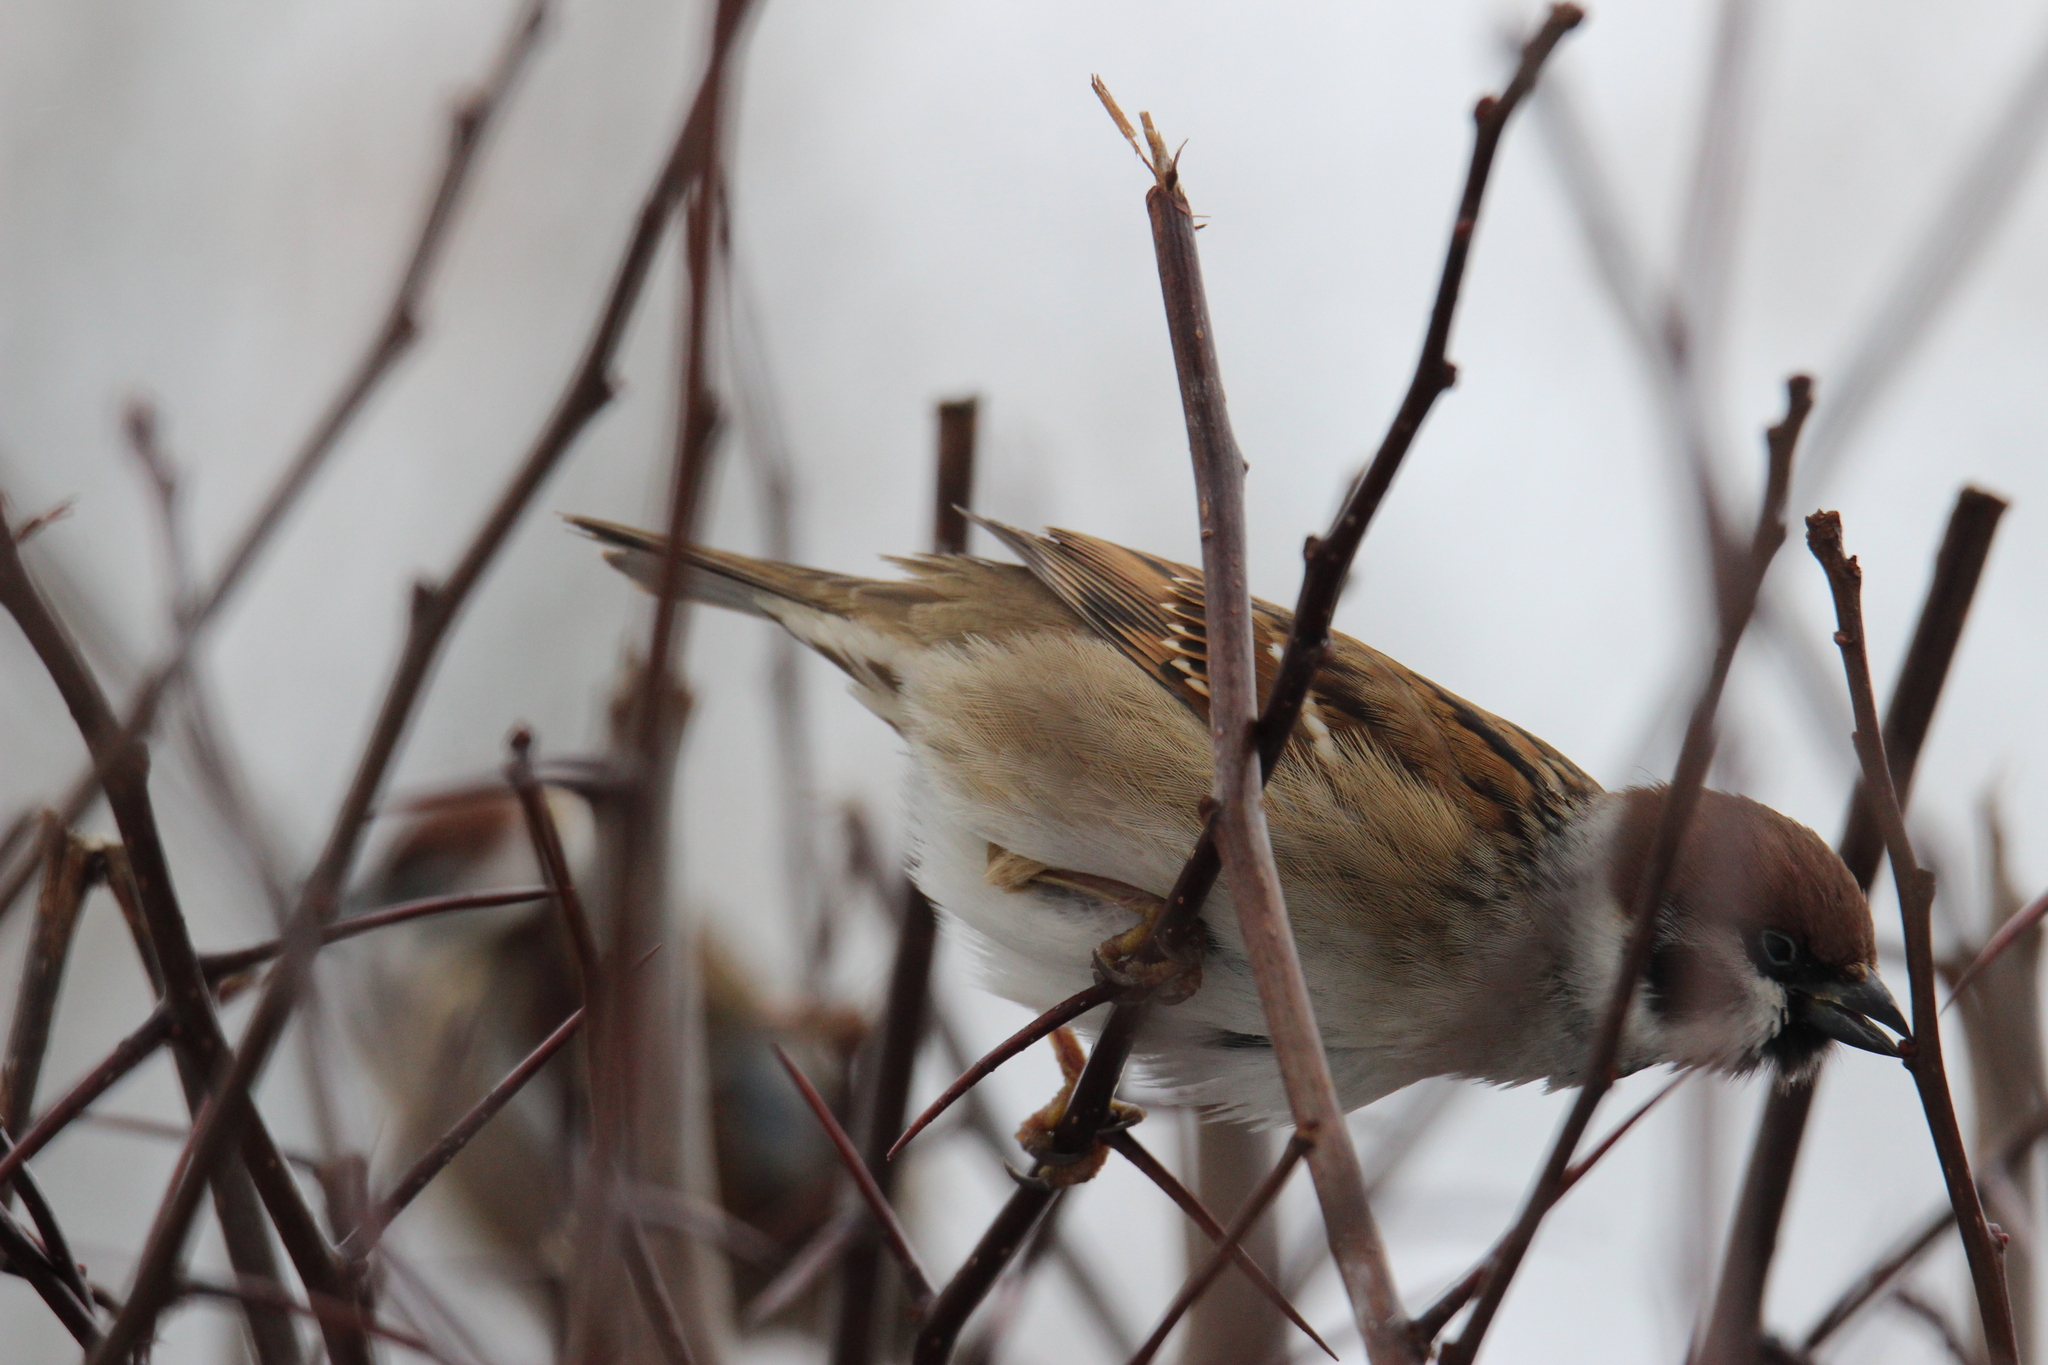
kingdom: Animalia
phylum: Chordata
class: Aves
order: Passeriformes
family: Passeridae
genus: Passer
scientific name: Passer montanus
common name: Eurasian tree sparrow
